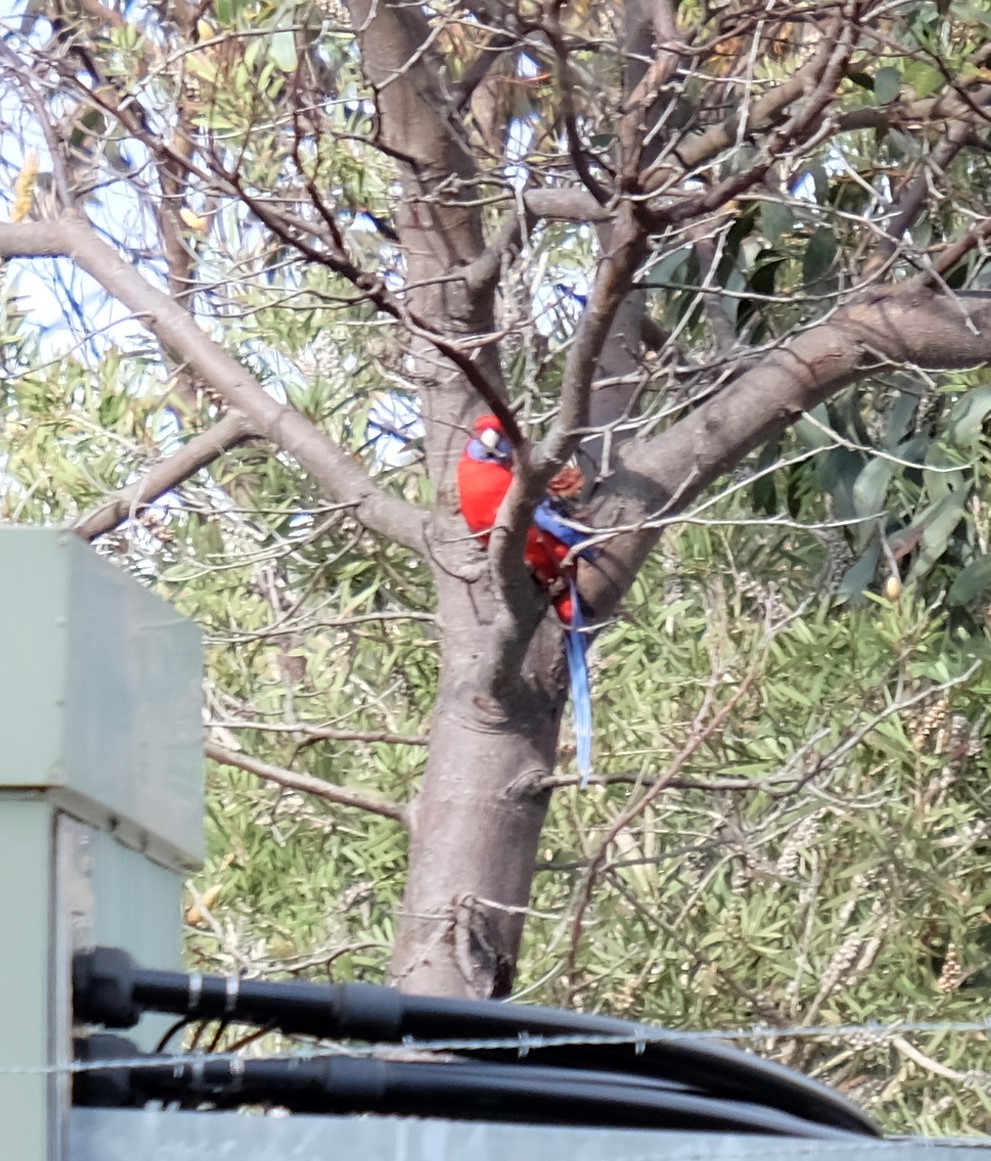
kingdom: Animalia
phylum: Chordata
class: Aves
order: Psittaciformes
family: Psittacidae
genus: Platycercus
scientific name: Platycercus elegans
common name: Crimson rosella
